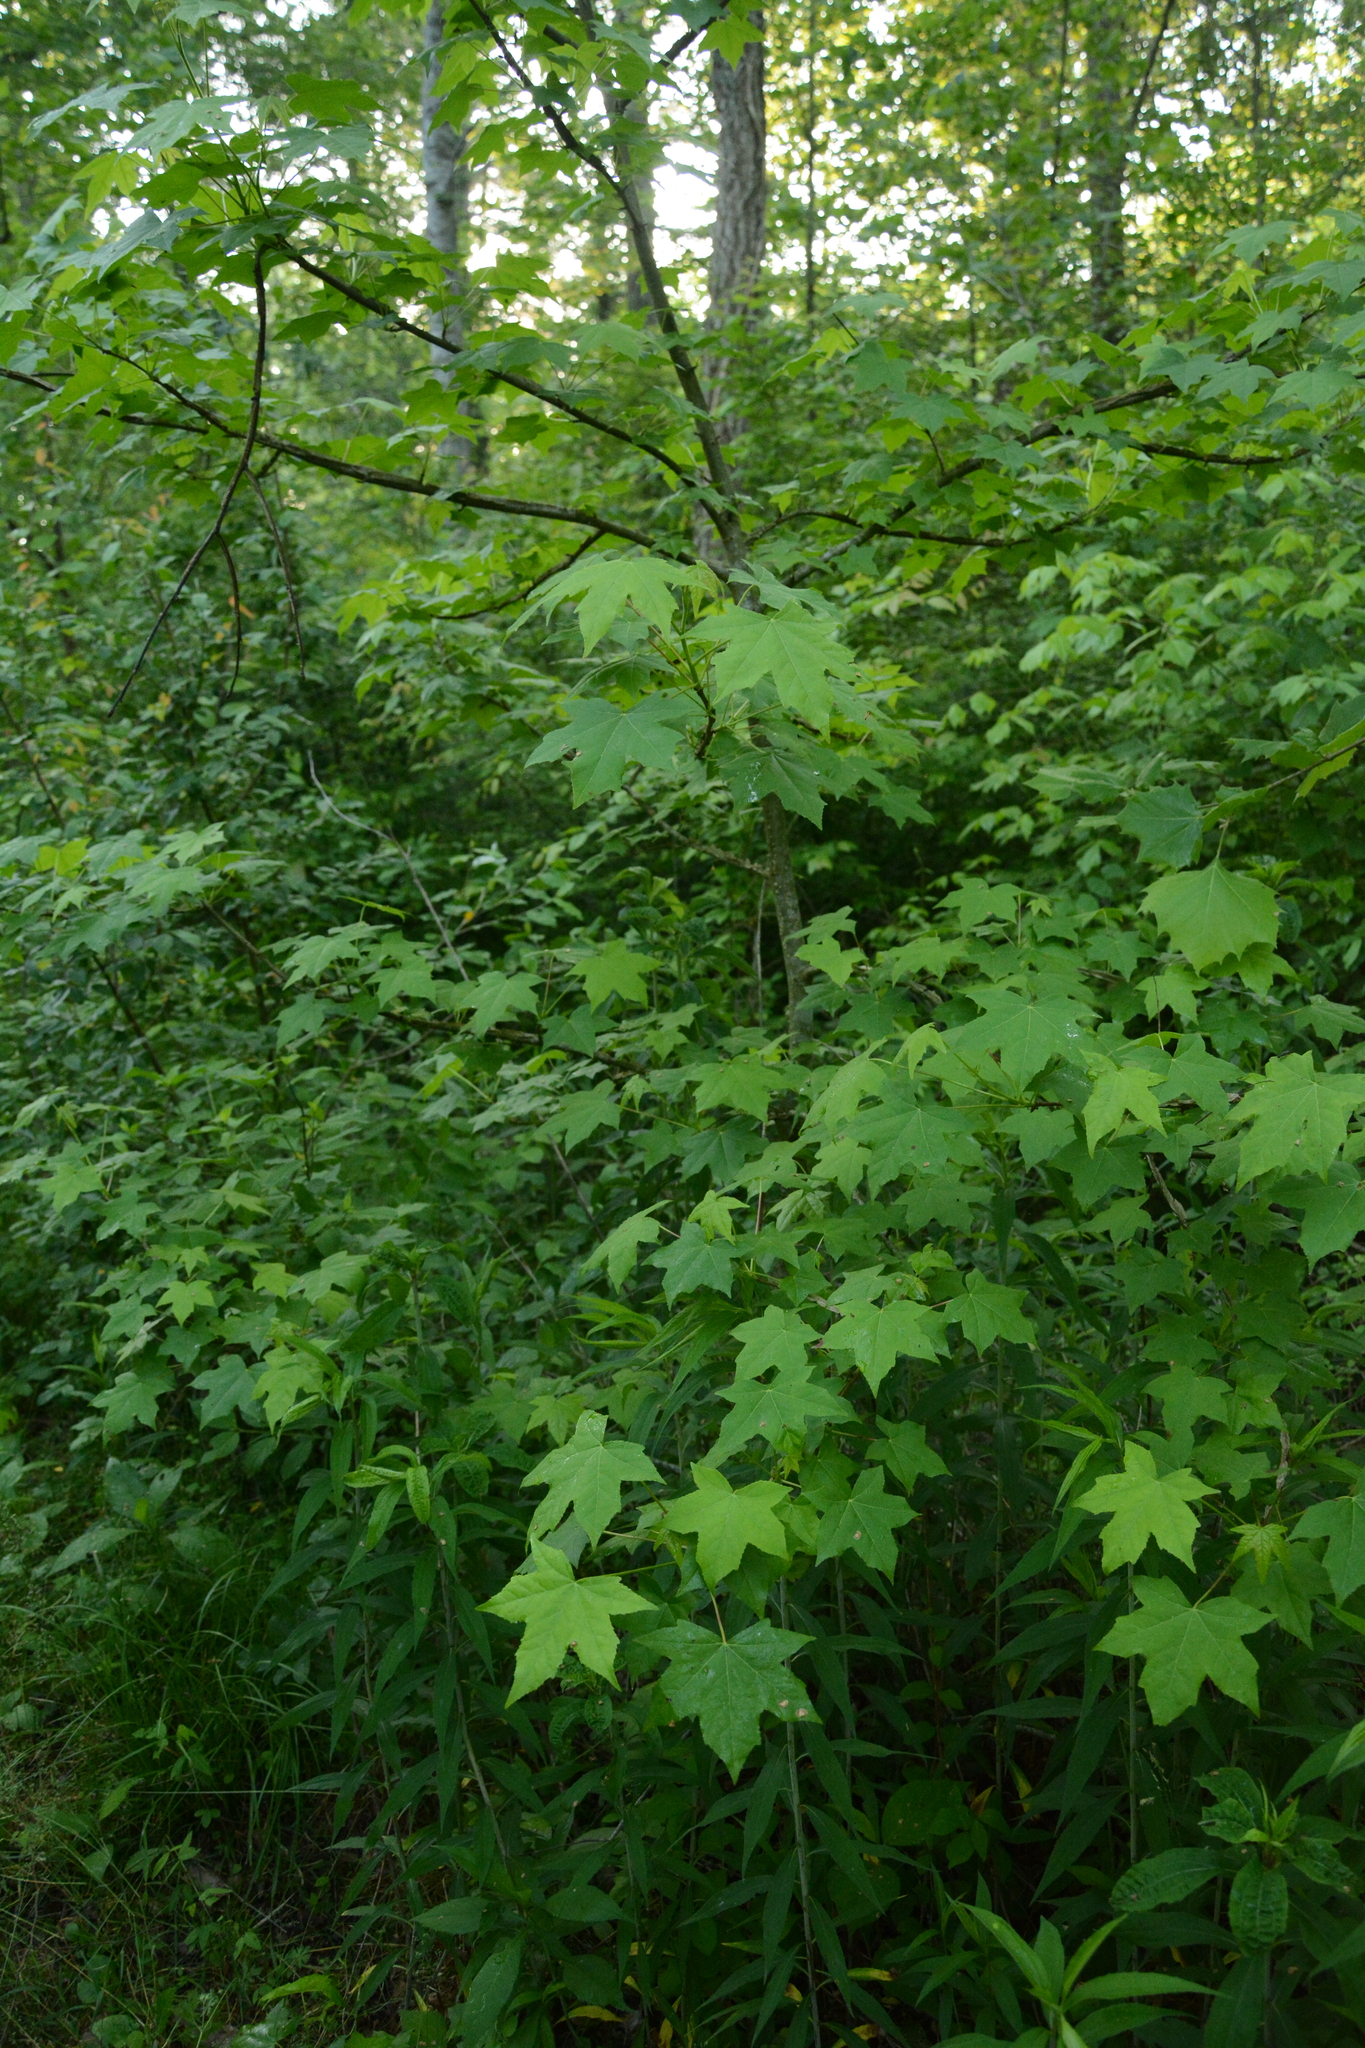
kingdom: Plantae
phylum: Tracheophyta
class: Magnoliopsida
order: Saxifragales
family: Altingiaceae
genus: Liquidambar
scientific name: Liquidambar styraciflua
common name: Sweet gum
